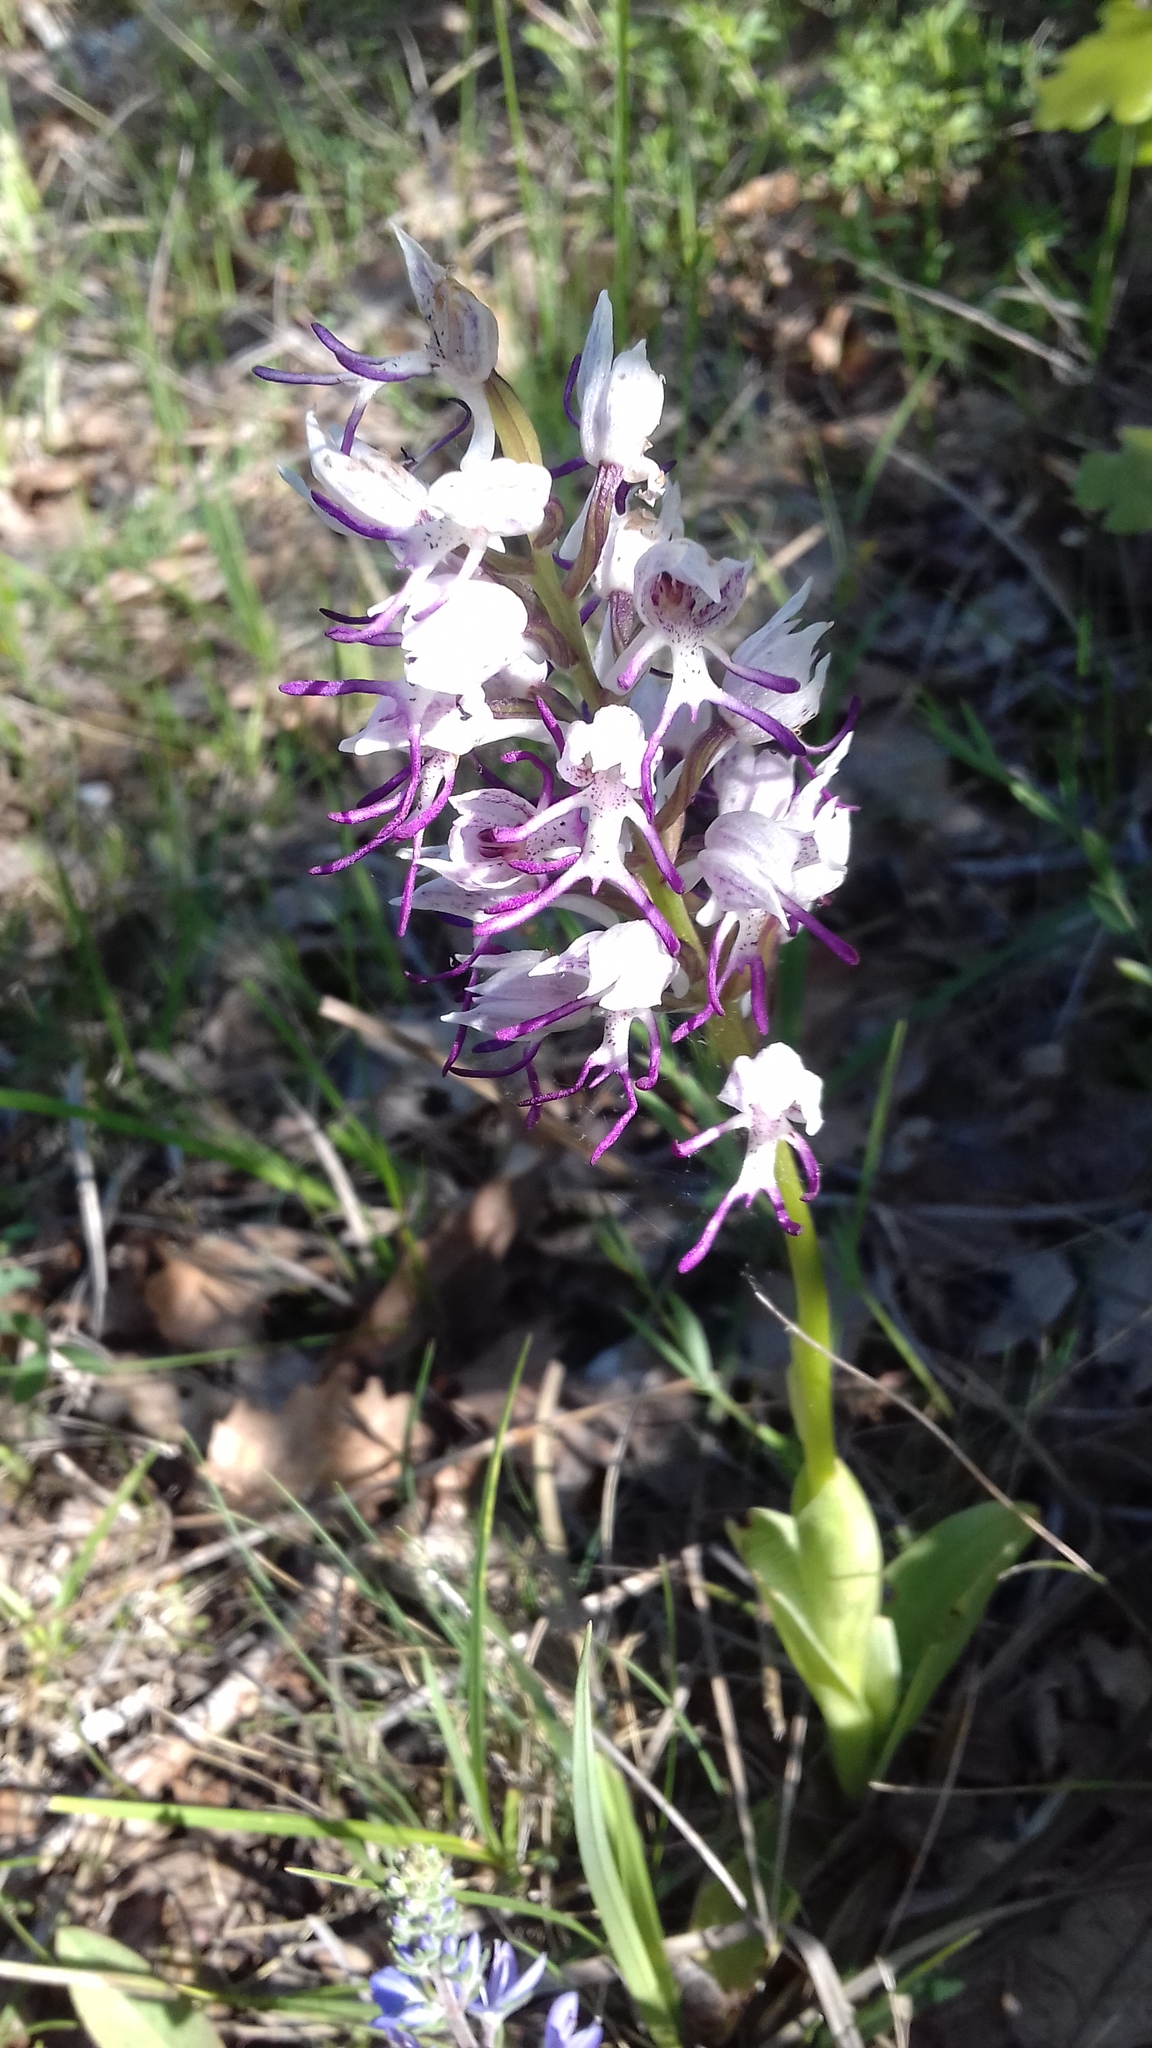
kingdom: Plantae
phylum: Tracheophyta
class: Liliopsida
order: Asparagales
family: Orchidaceae
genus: Orchis
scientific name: Orchis simia
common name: Monkey orchid
